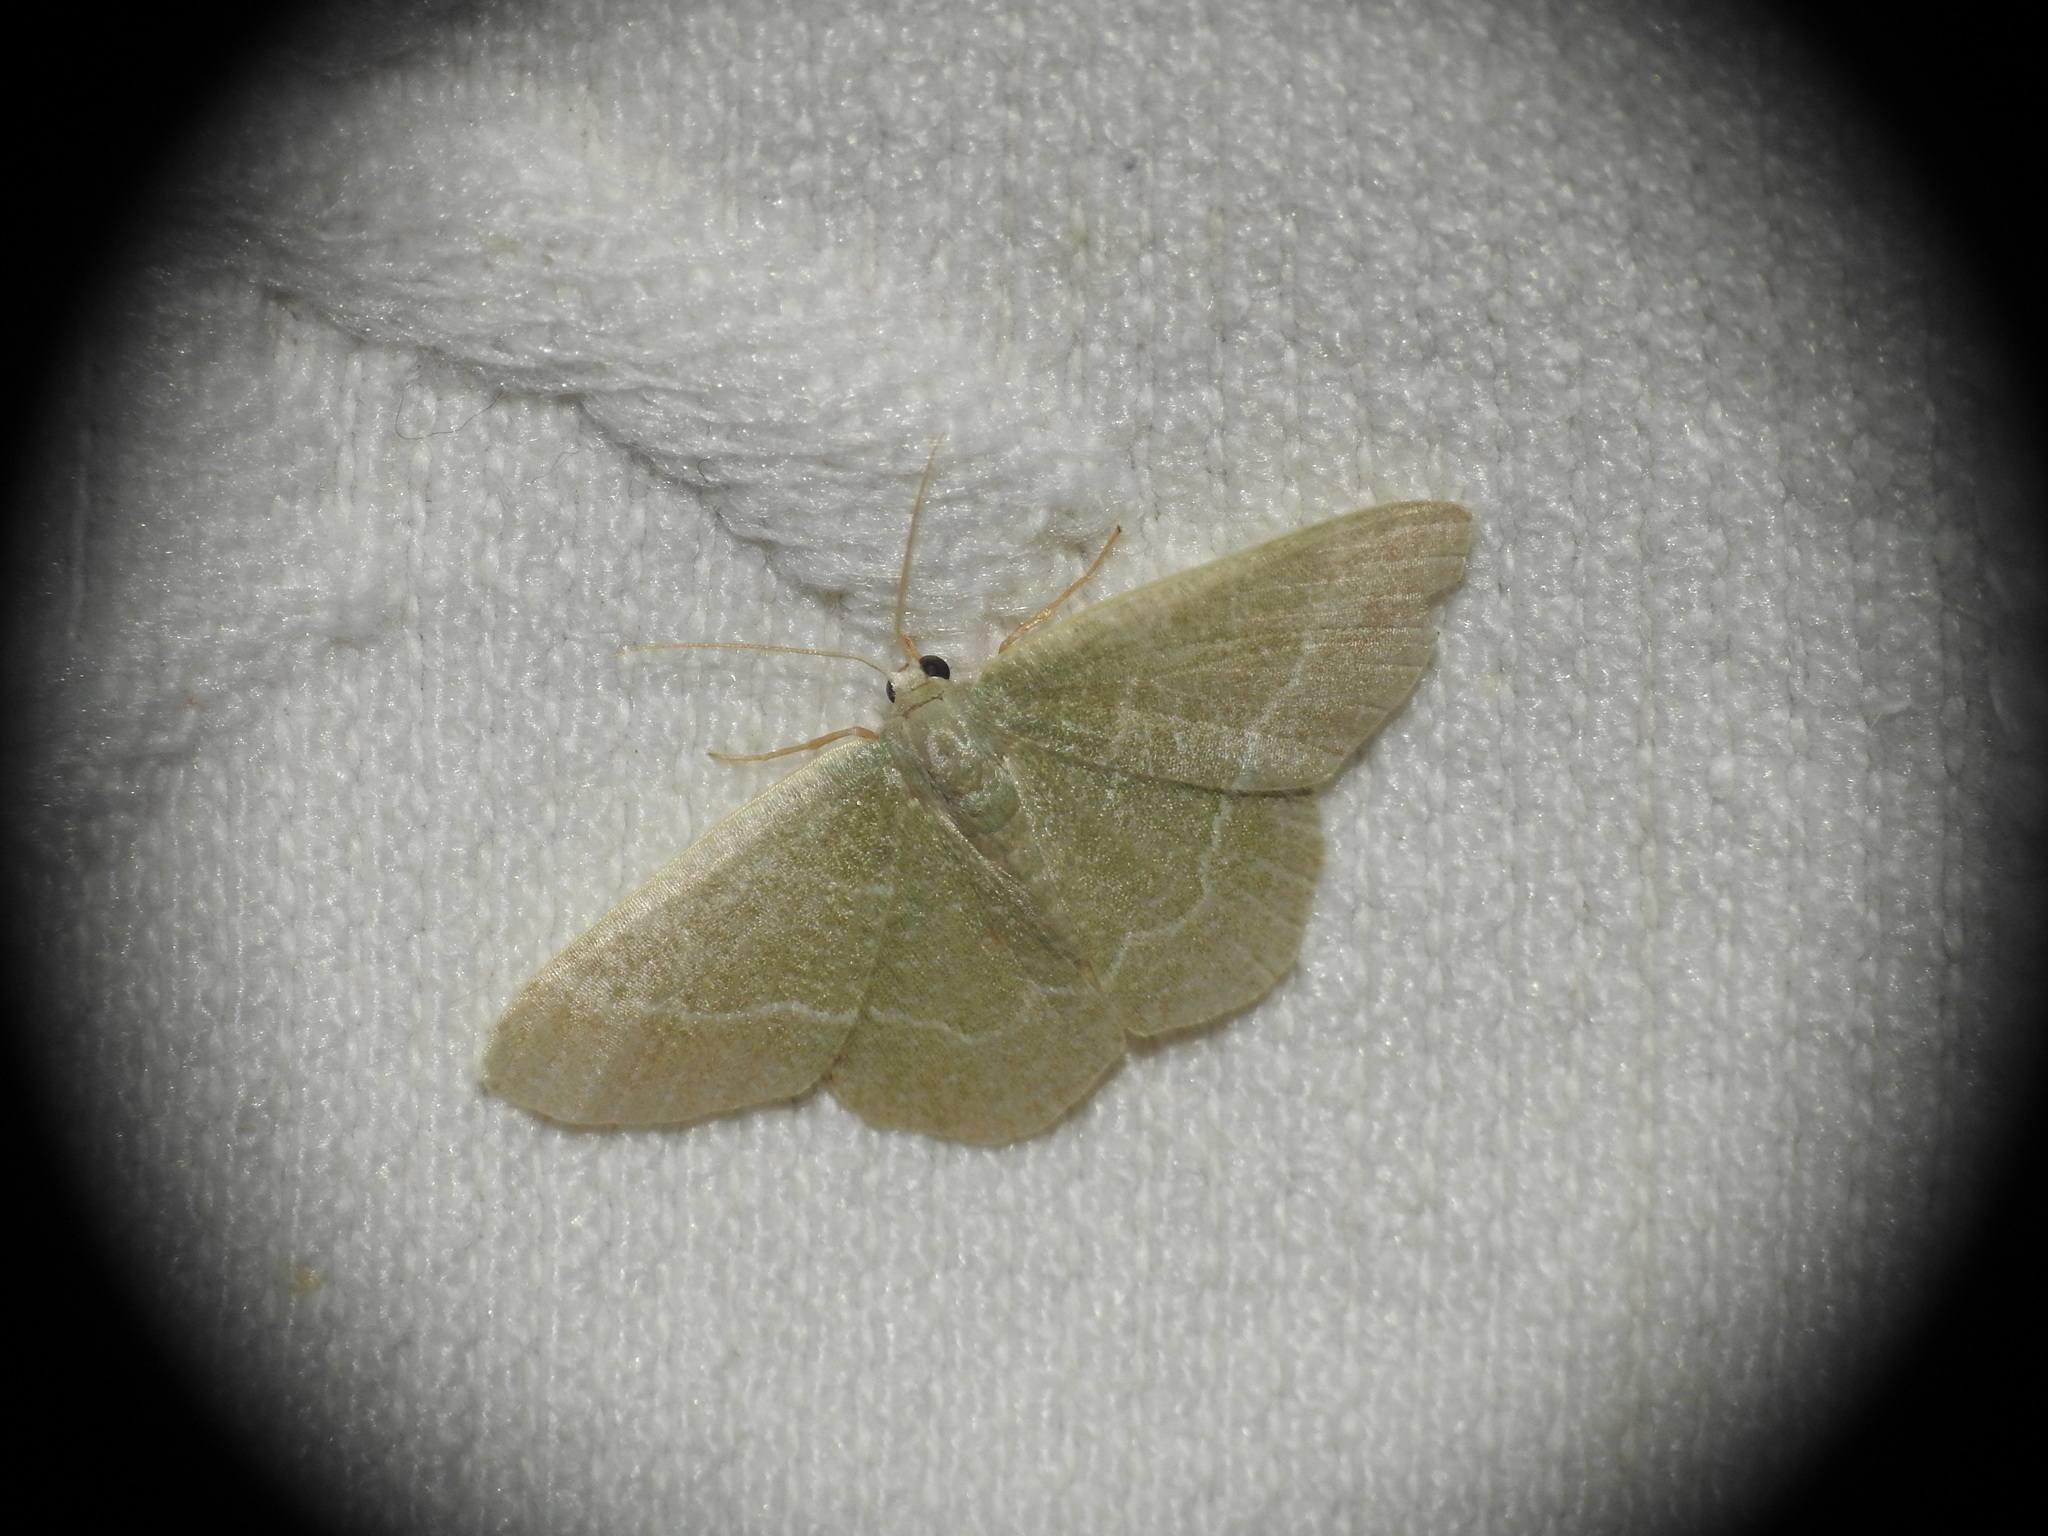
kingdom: Animalia
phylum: Arthropoda
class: Insecta
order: Lepidoptera
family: Geometridae
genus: Chlorissa
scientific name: Chlorissa etruscaria
